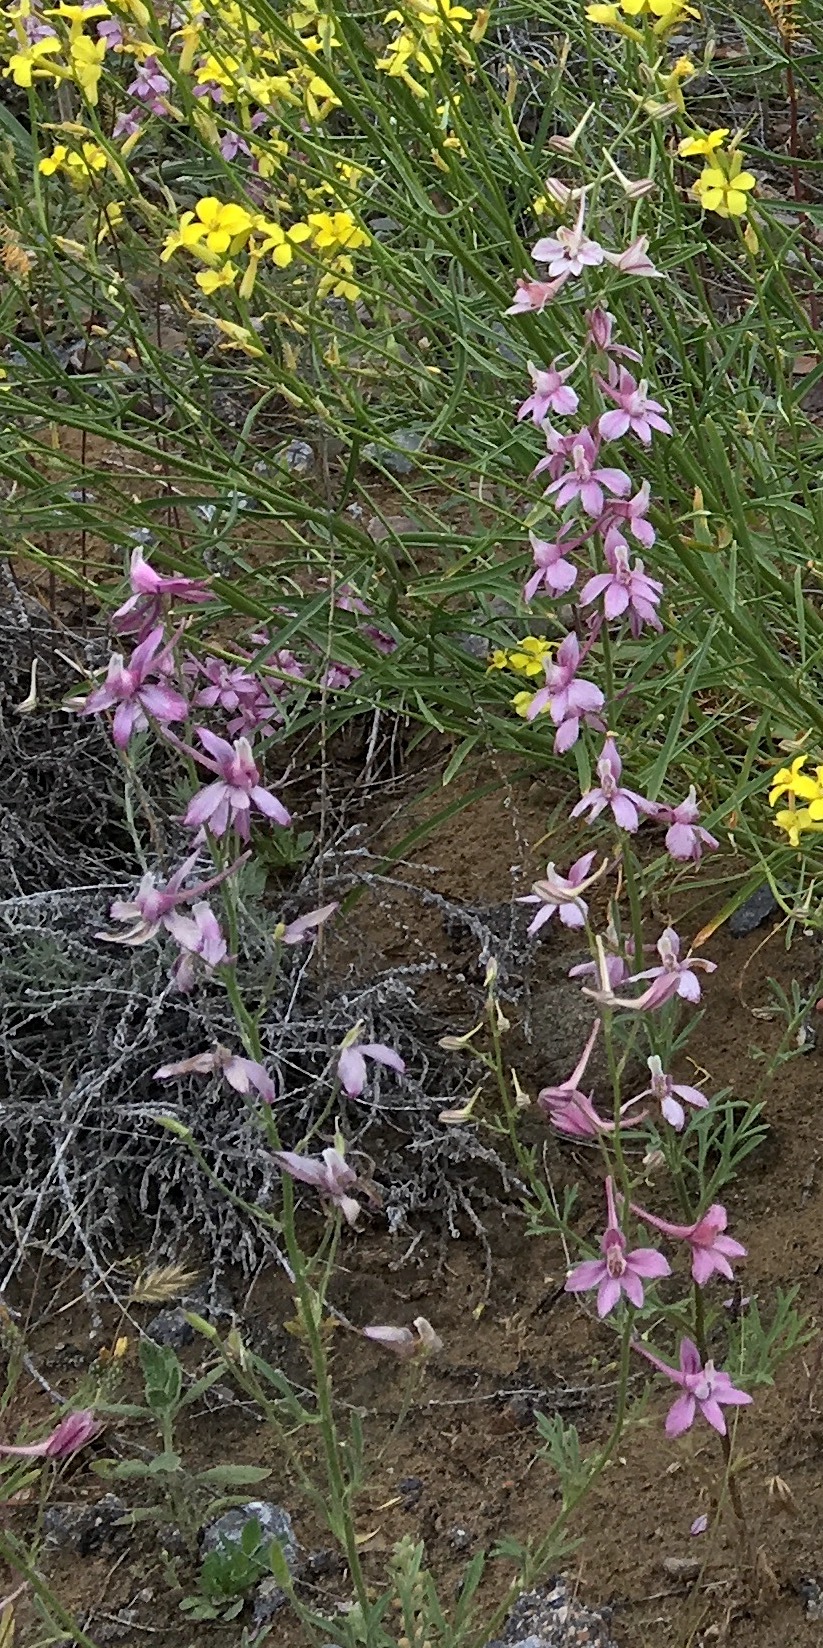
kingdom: Plantae
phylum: Tracheophyta
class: Magnoliopsida
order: Ranunculales
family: Ranunculaceae
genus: Delphinium
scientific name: Delphinium camptocarpum
